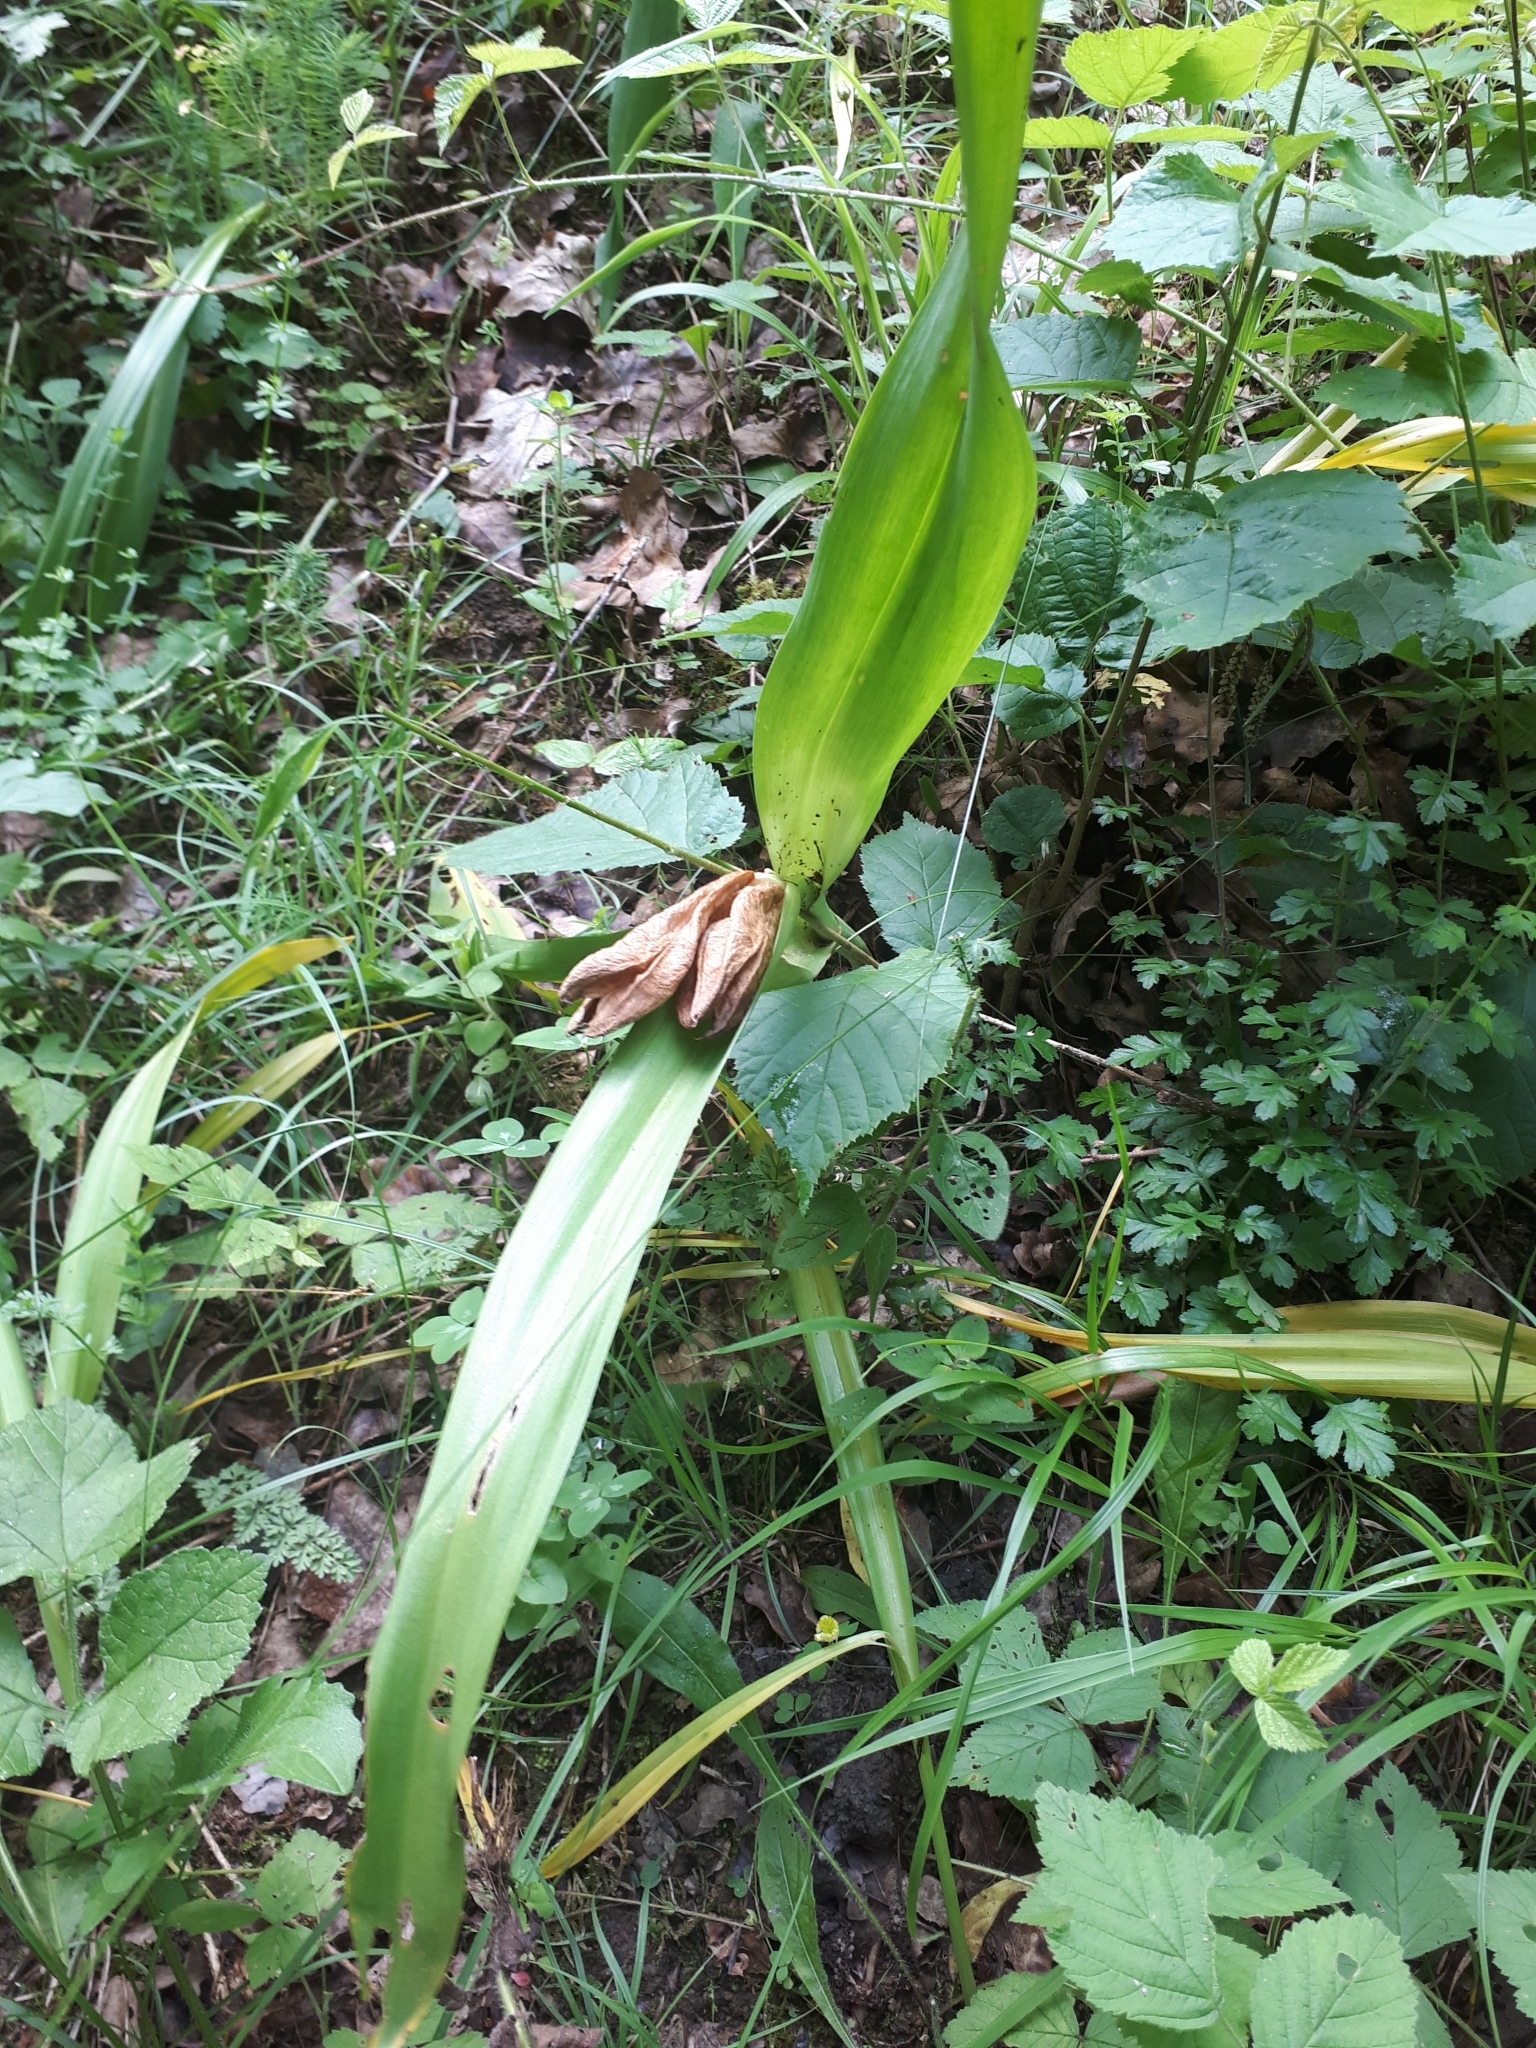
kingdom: Plantae
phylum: Tracheophyta
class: Liliopsida
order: Liliales
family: Colchicaceae
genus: Colchicum
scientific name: Colchicum autumnale
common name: Autumn crocus
